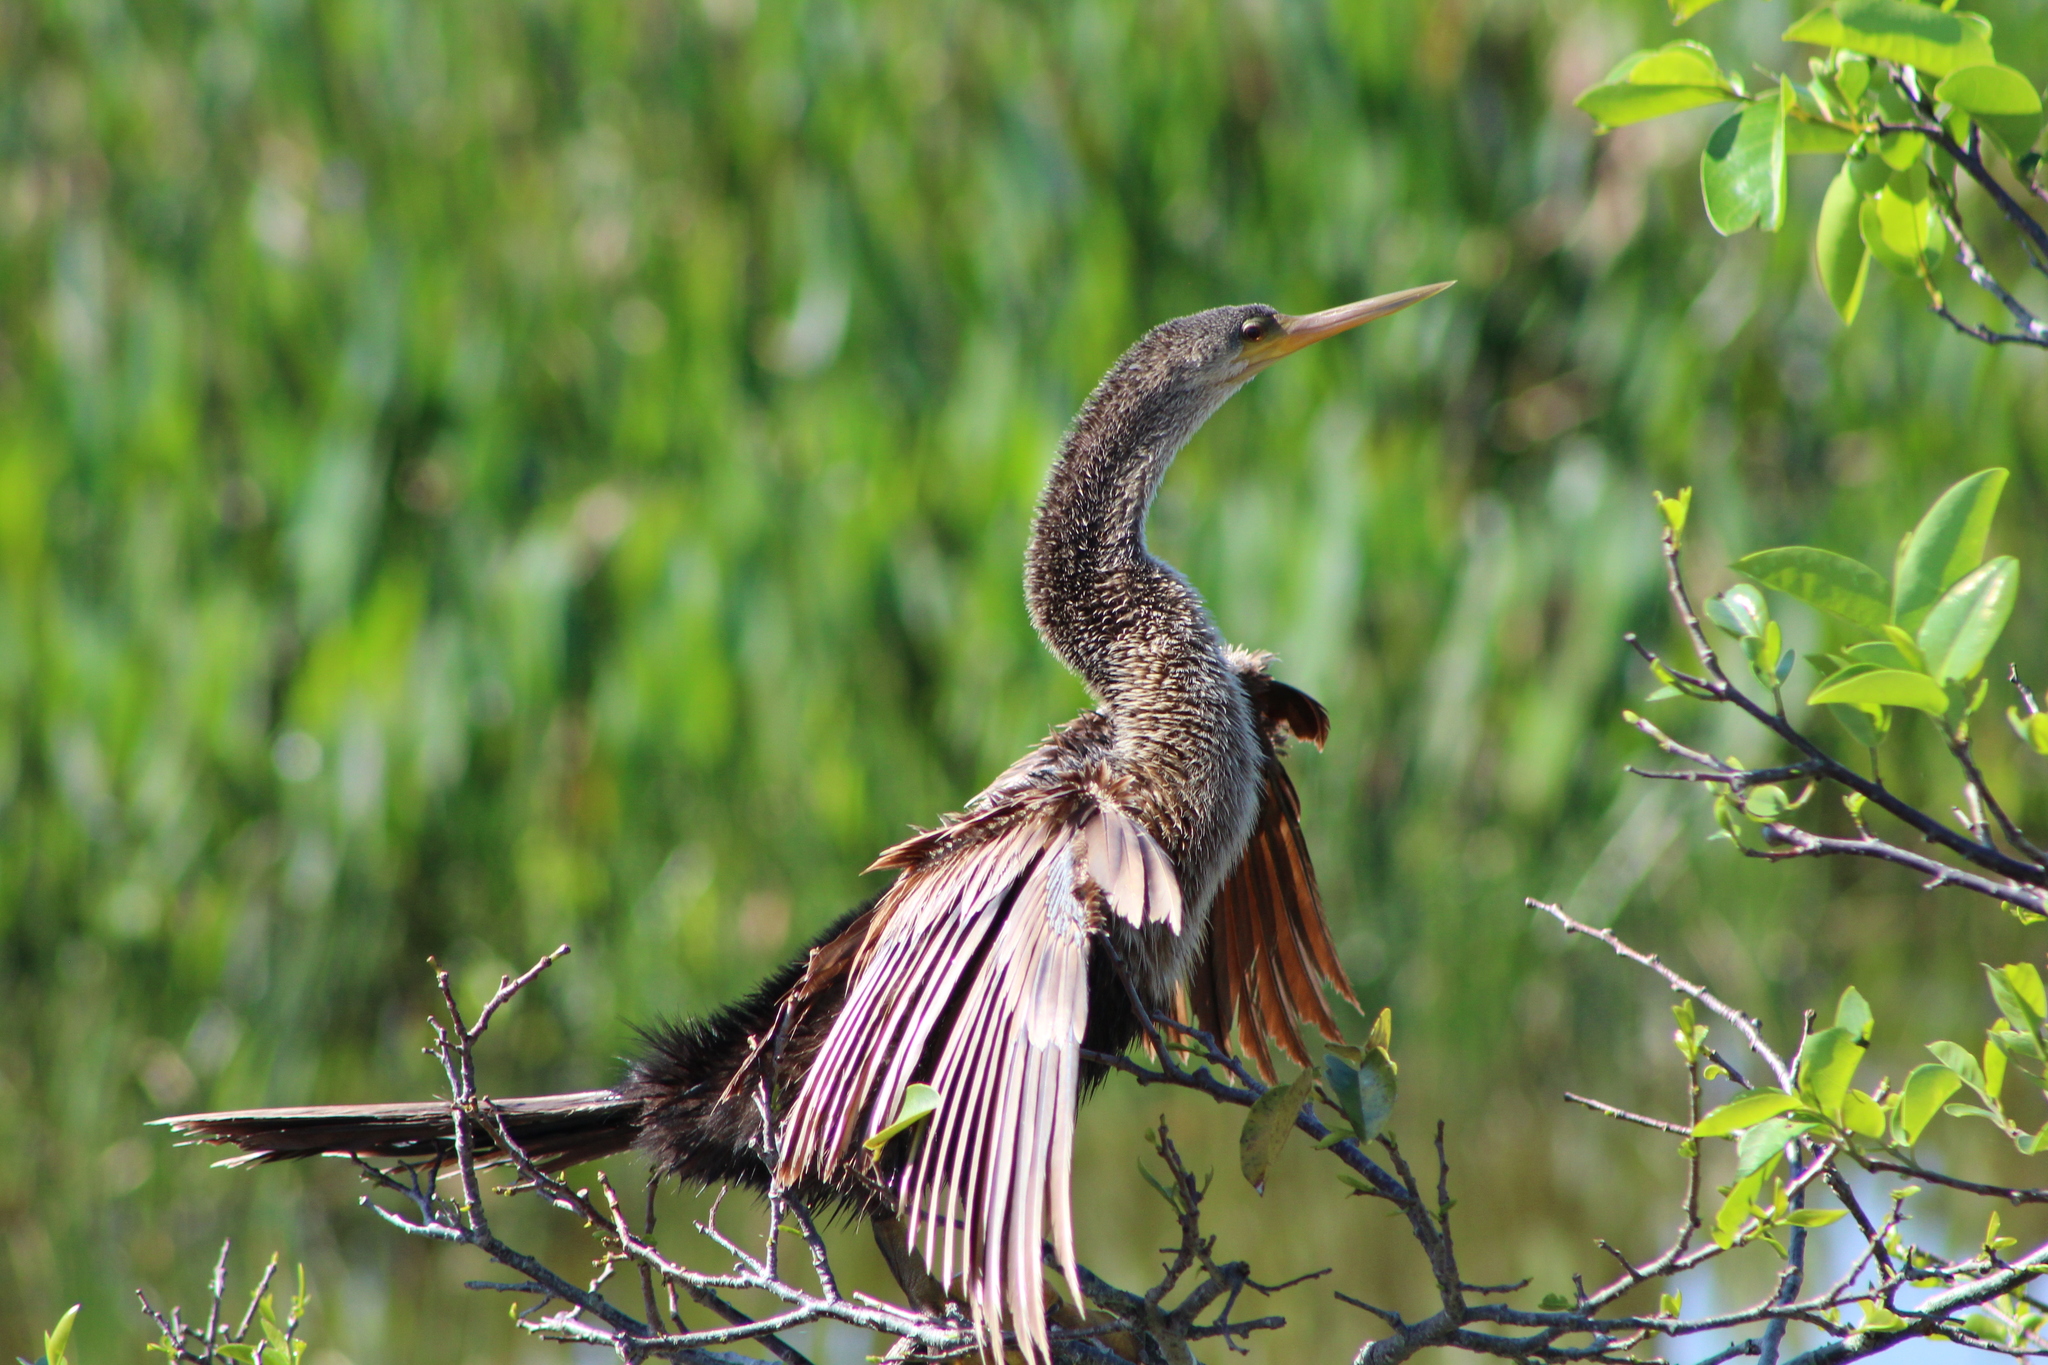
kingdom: Animalia
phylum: Chordata
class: Aves
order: Suliformes
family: Anhingidae
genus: Anhinga
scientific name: Anhinga anhinga
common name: Anhinga
